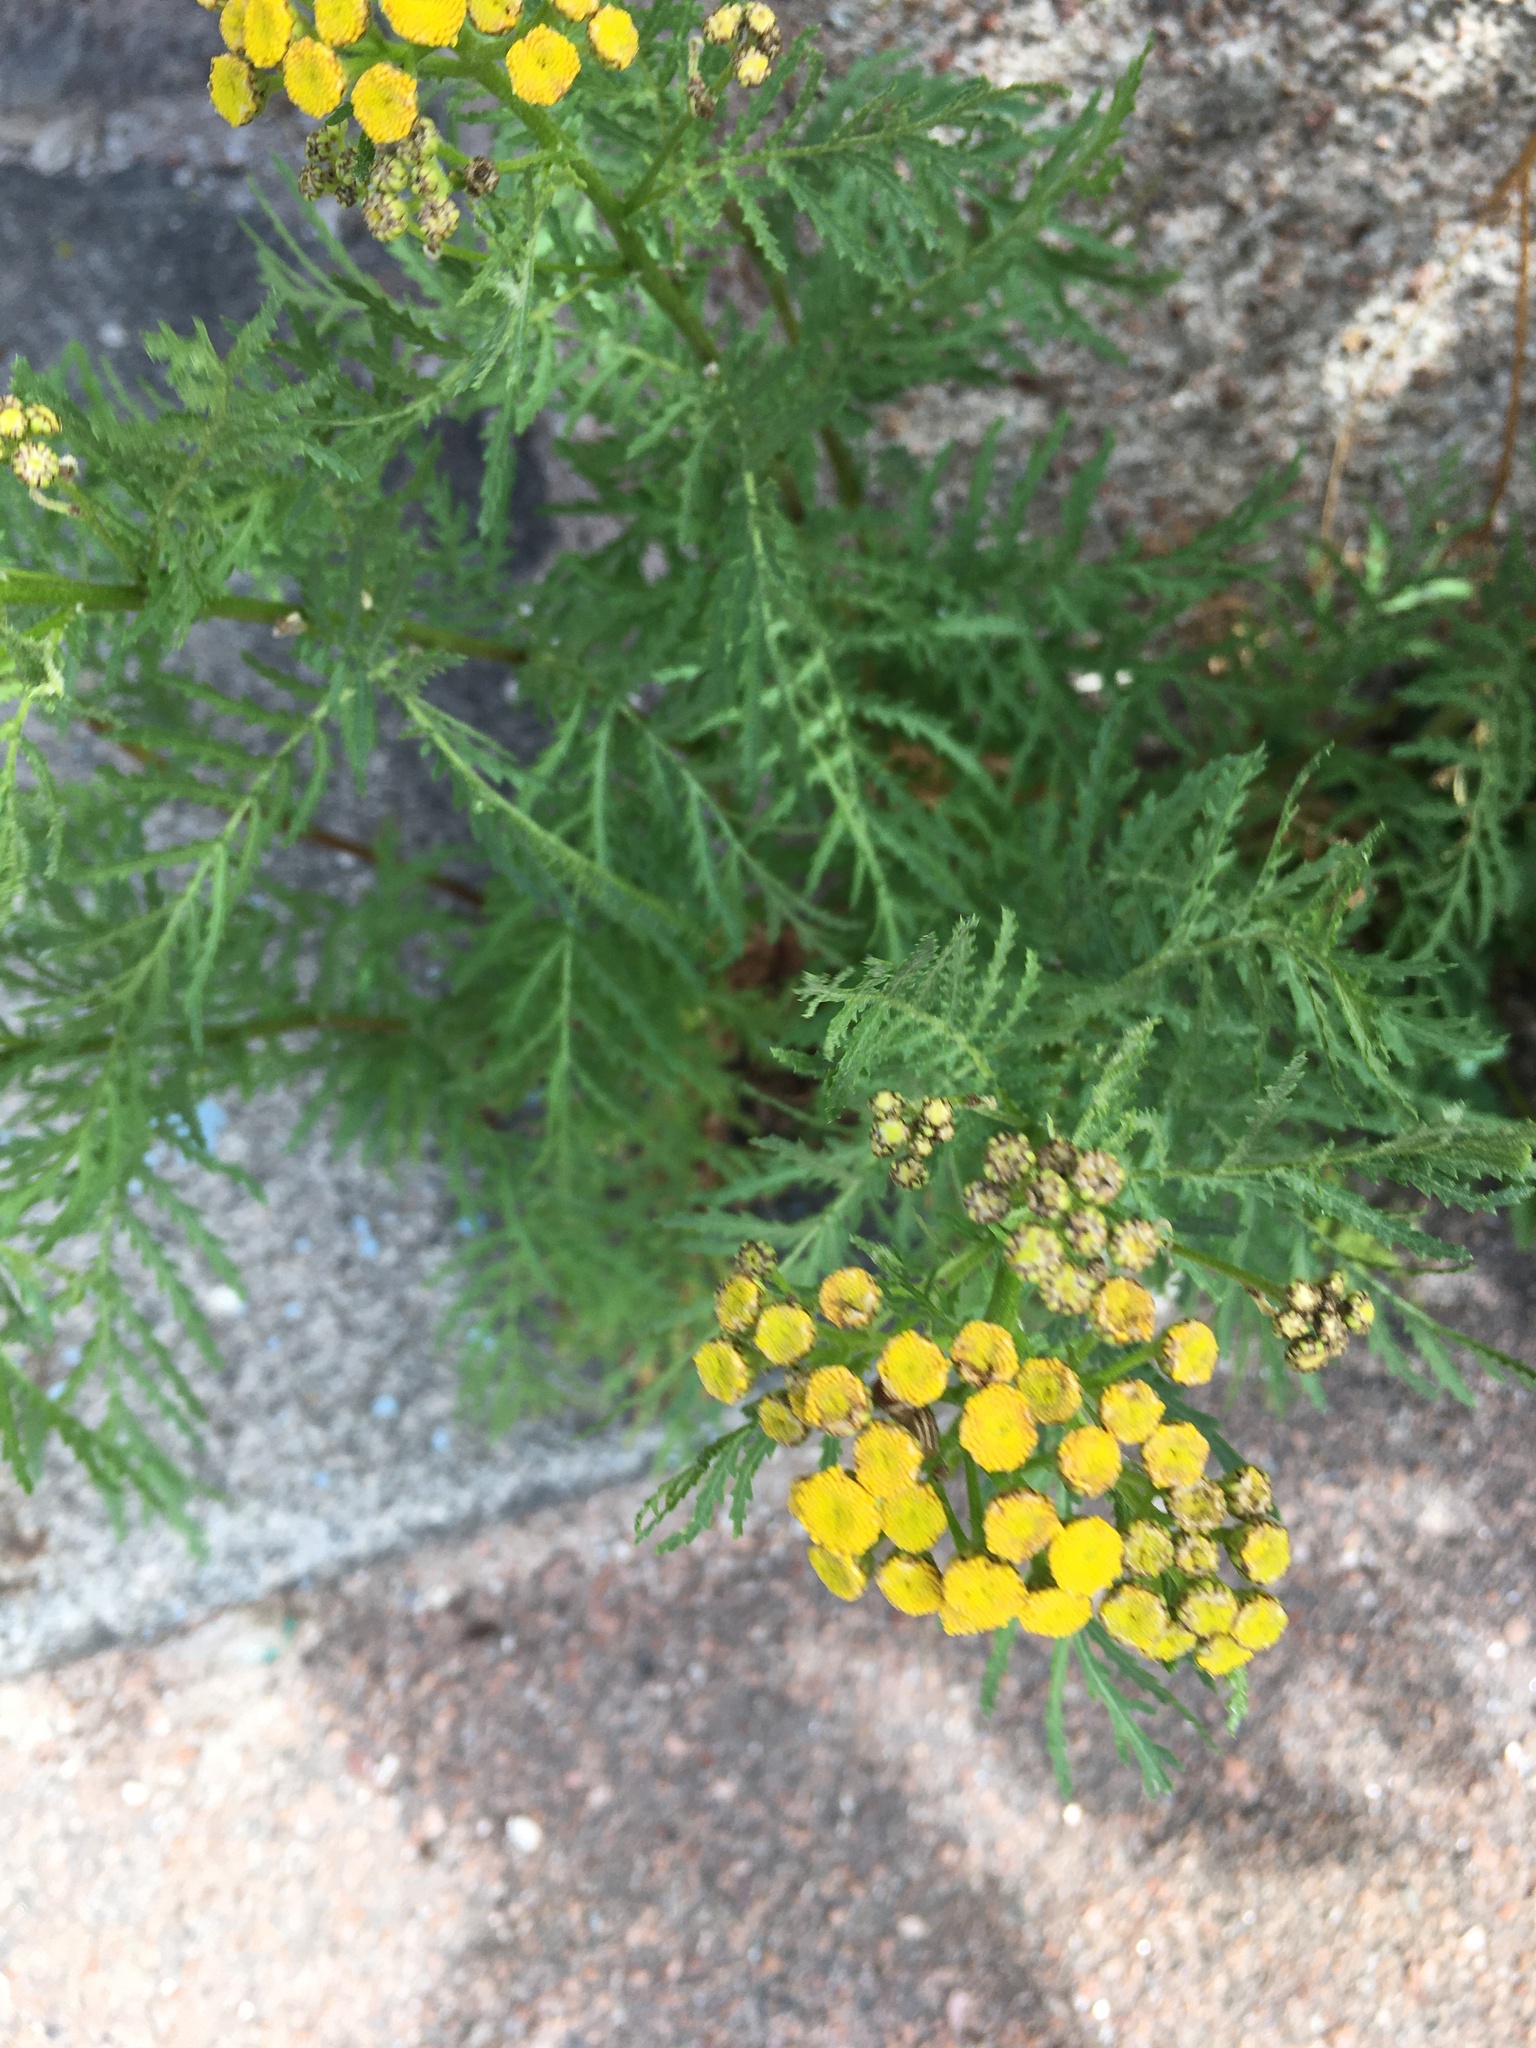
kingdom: Plantae
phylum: Tracheophyta
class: Magnoliopsida
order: Asterales
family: Asteraceae
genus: Tanacetum
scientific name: Tanacetum vulgare
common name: Common tansy
